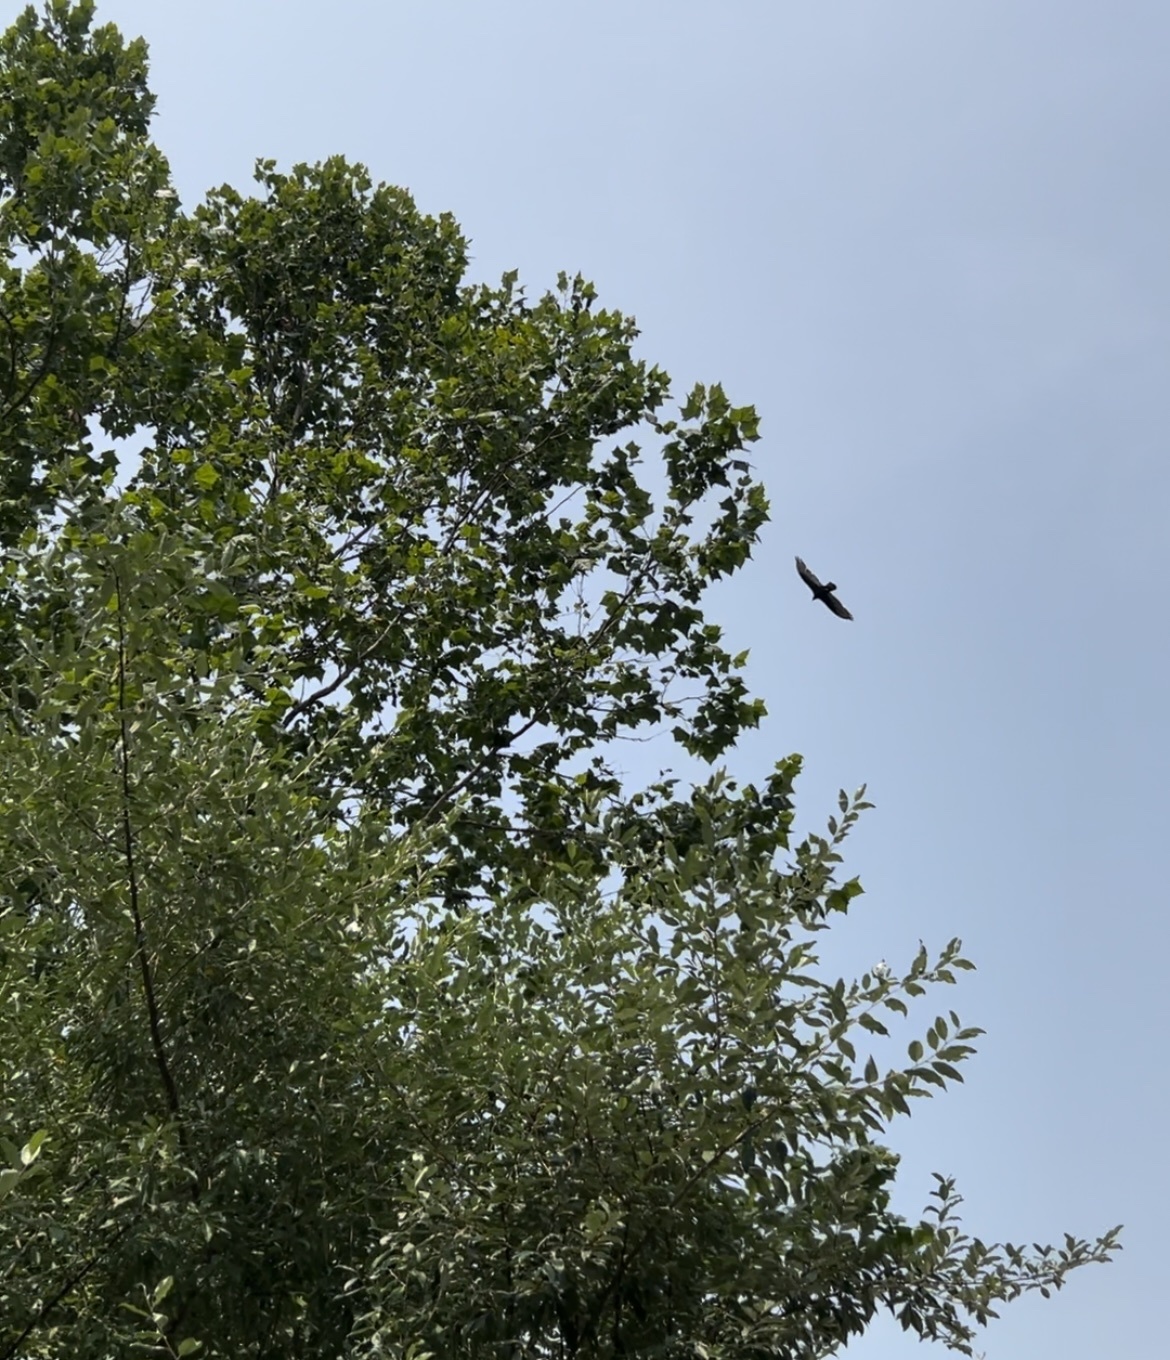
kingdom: Animalia
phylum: Chordata
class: Aves
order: Accipitriformes
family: Cathartidae
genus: Cathartes
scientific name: Cathartes aura
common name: Turkey vulture
